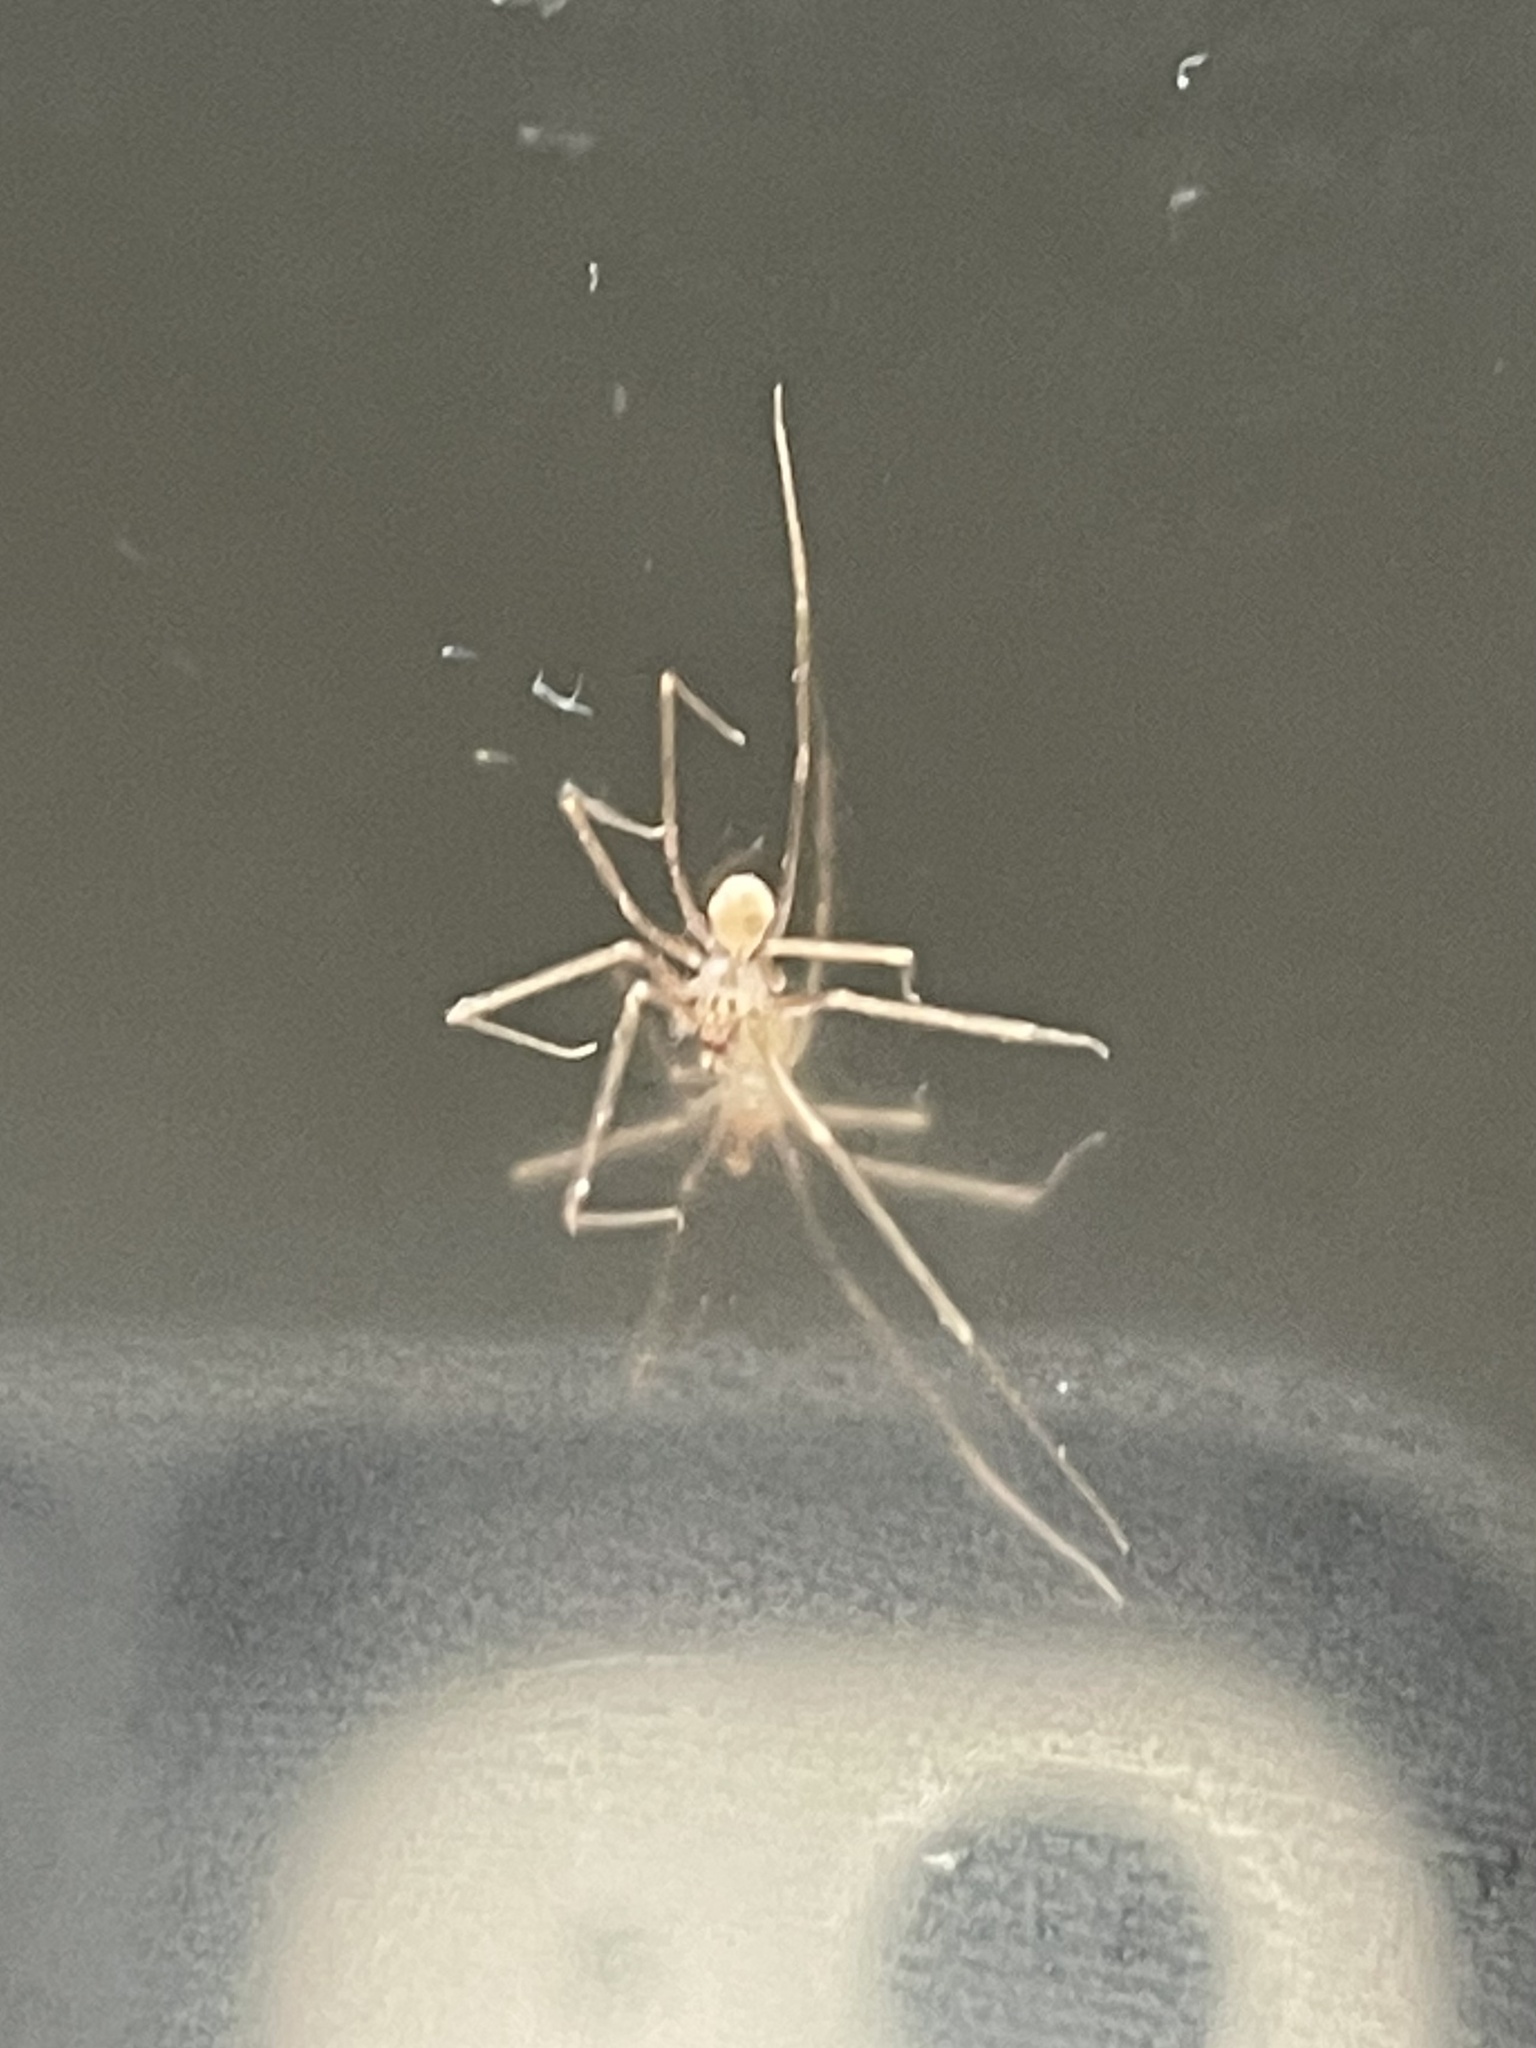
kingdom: Animalia
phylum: Arthropoda
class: Arachnida
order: Araneae
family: Pholcidae
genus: Spermophora
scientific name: Spermophora senoculata
